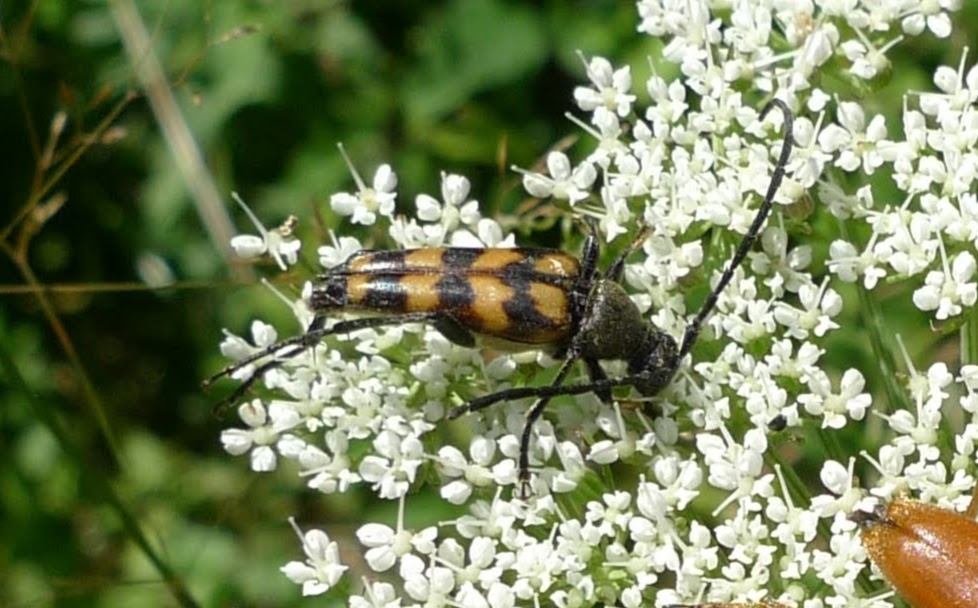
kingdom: Animalia
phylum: Arthropoda
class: Insecta
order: Coleoptera
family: Cerambycidae
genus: Leptura
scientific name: Leptura quadrifasciata
